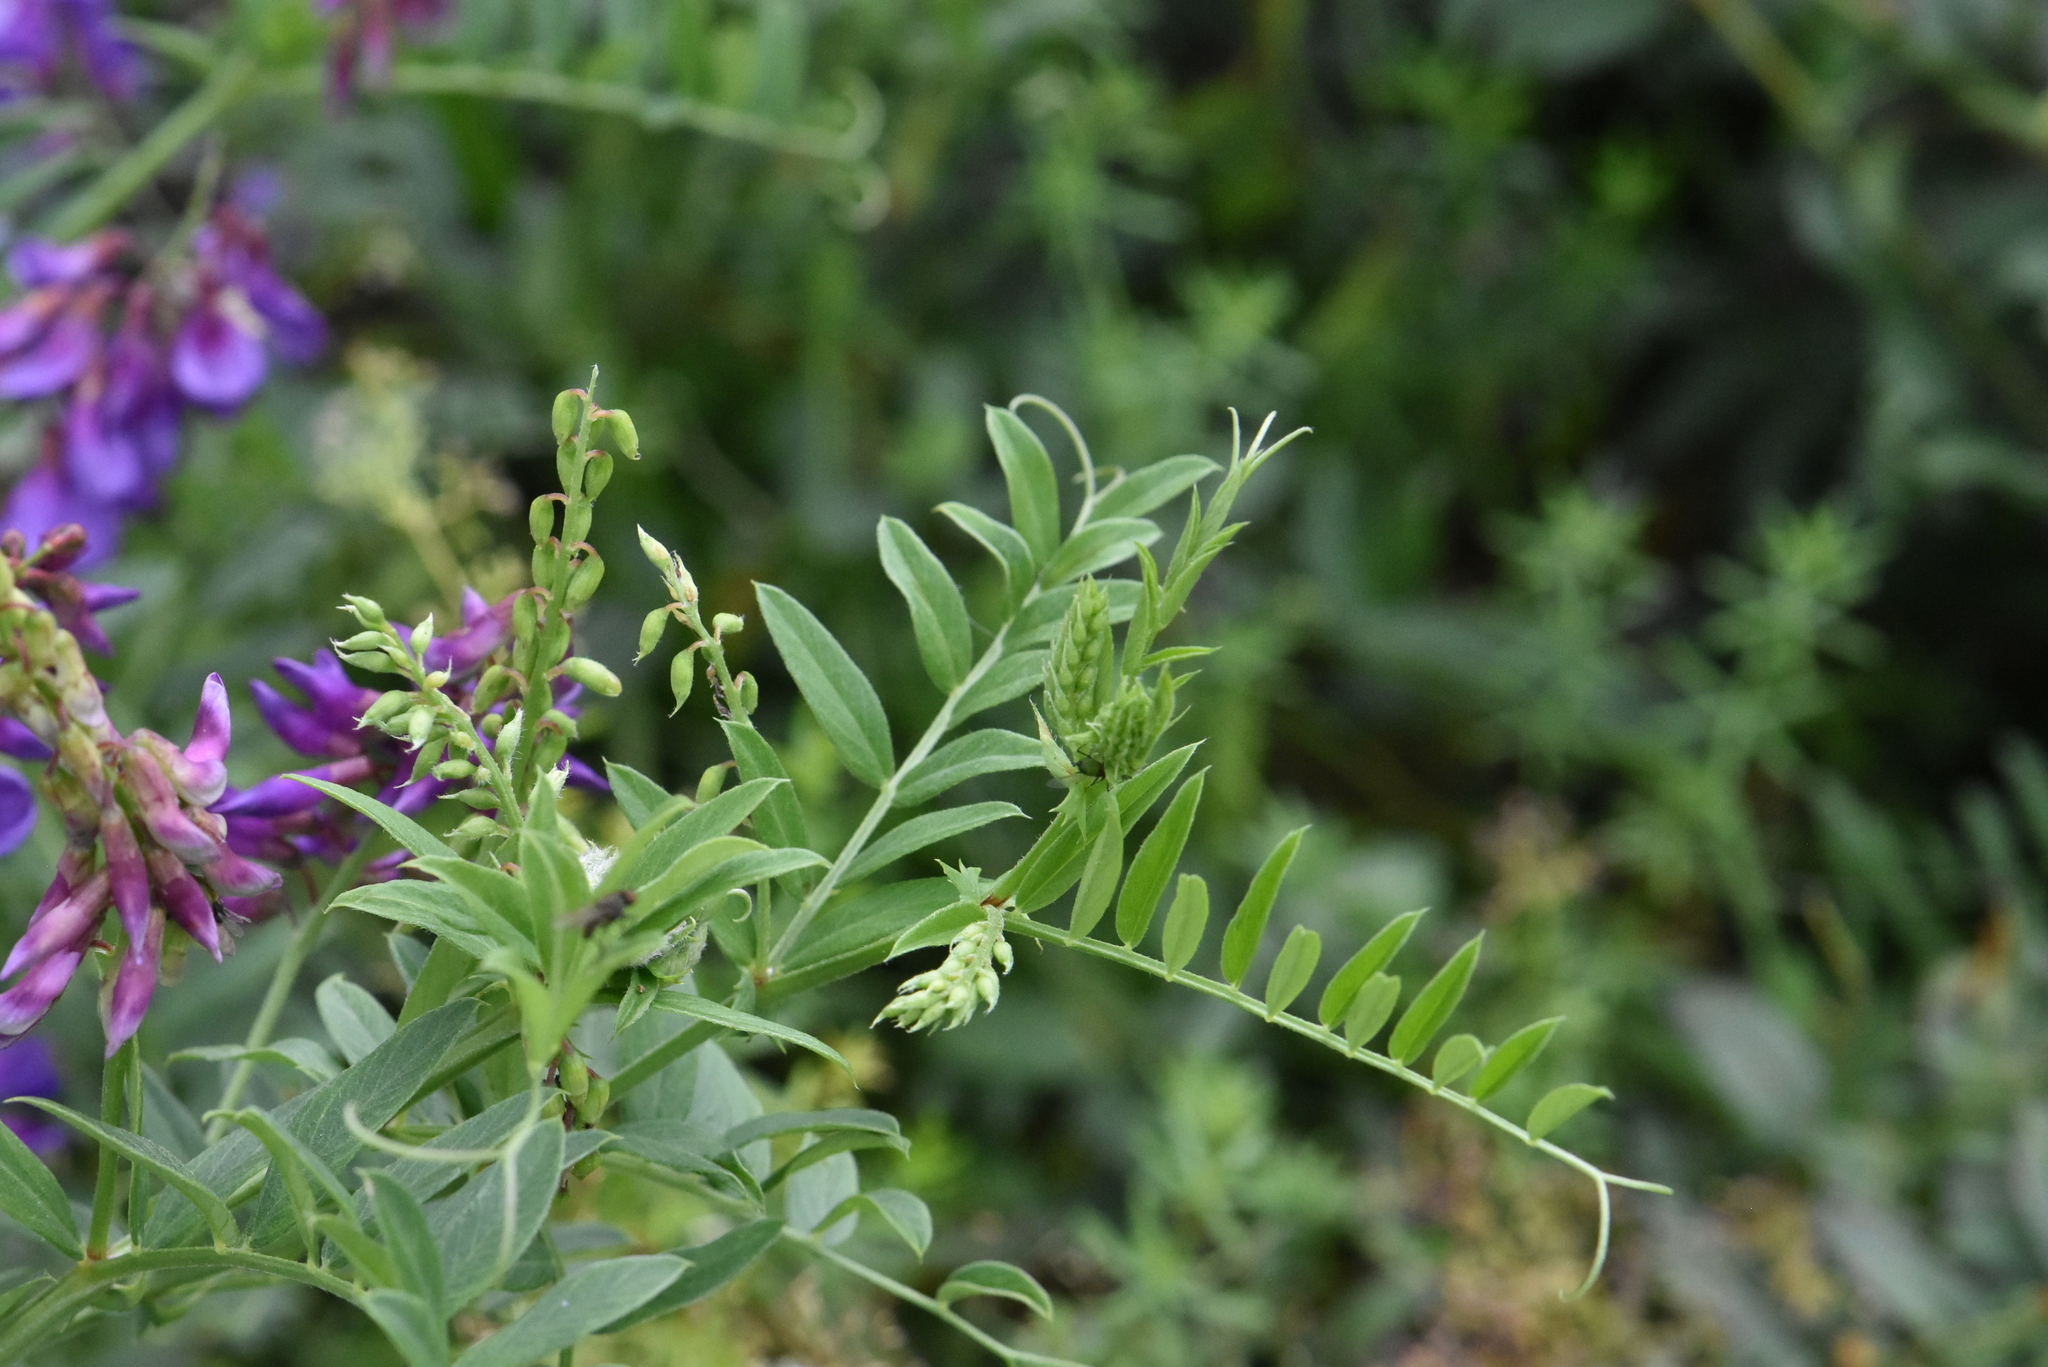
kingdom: Plantae
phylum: Tracheophyta
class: Magnoliopsida
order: Fabales
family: Fabaceae
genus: Vicia
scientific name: Vicia amoena
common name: Cheder ebs
